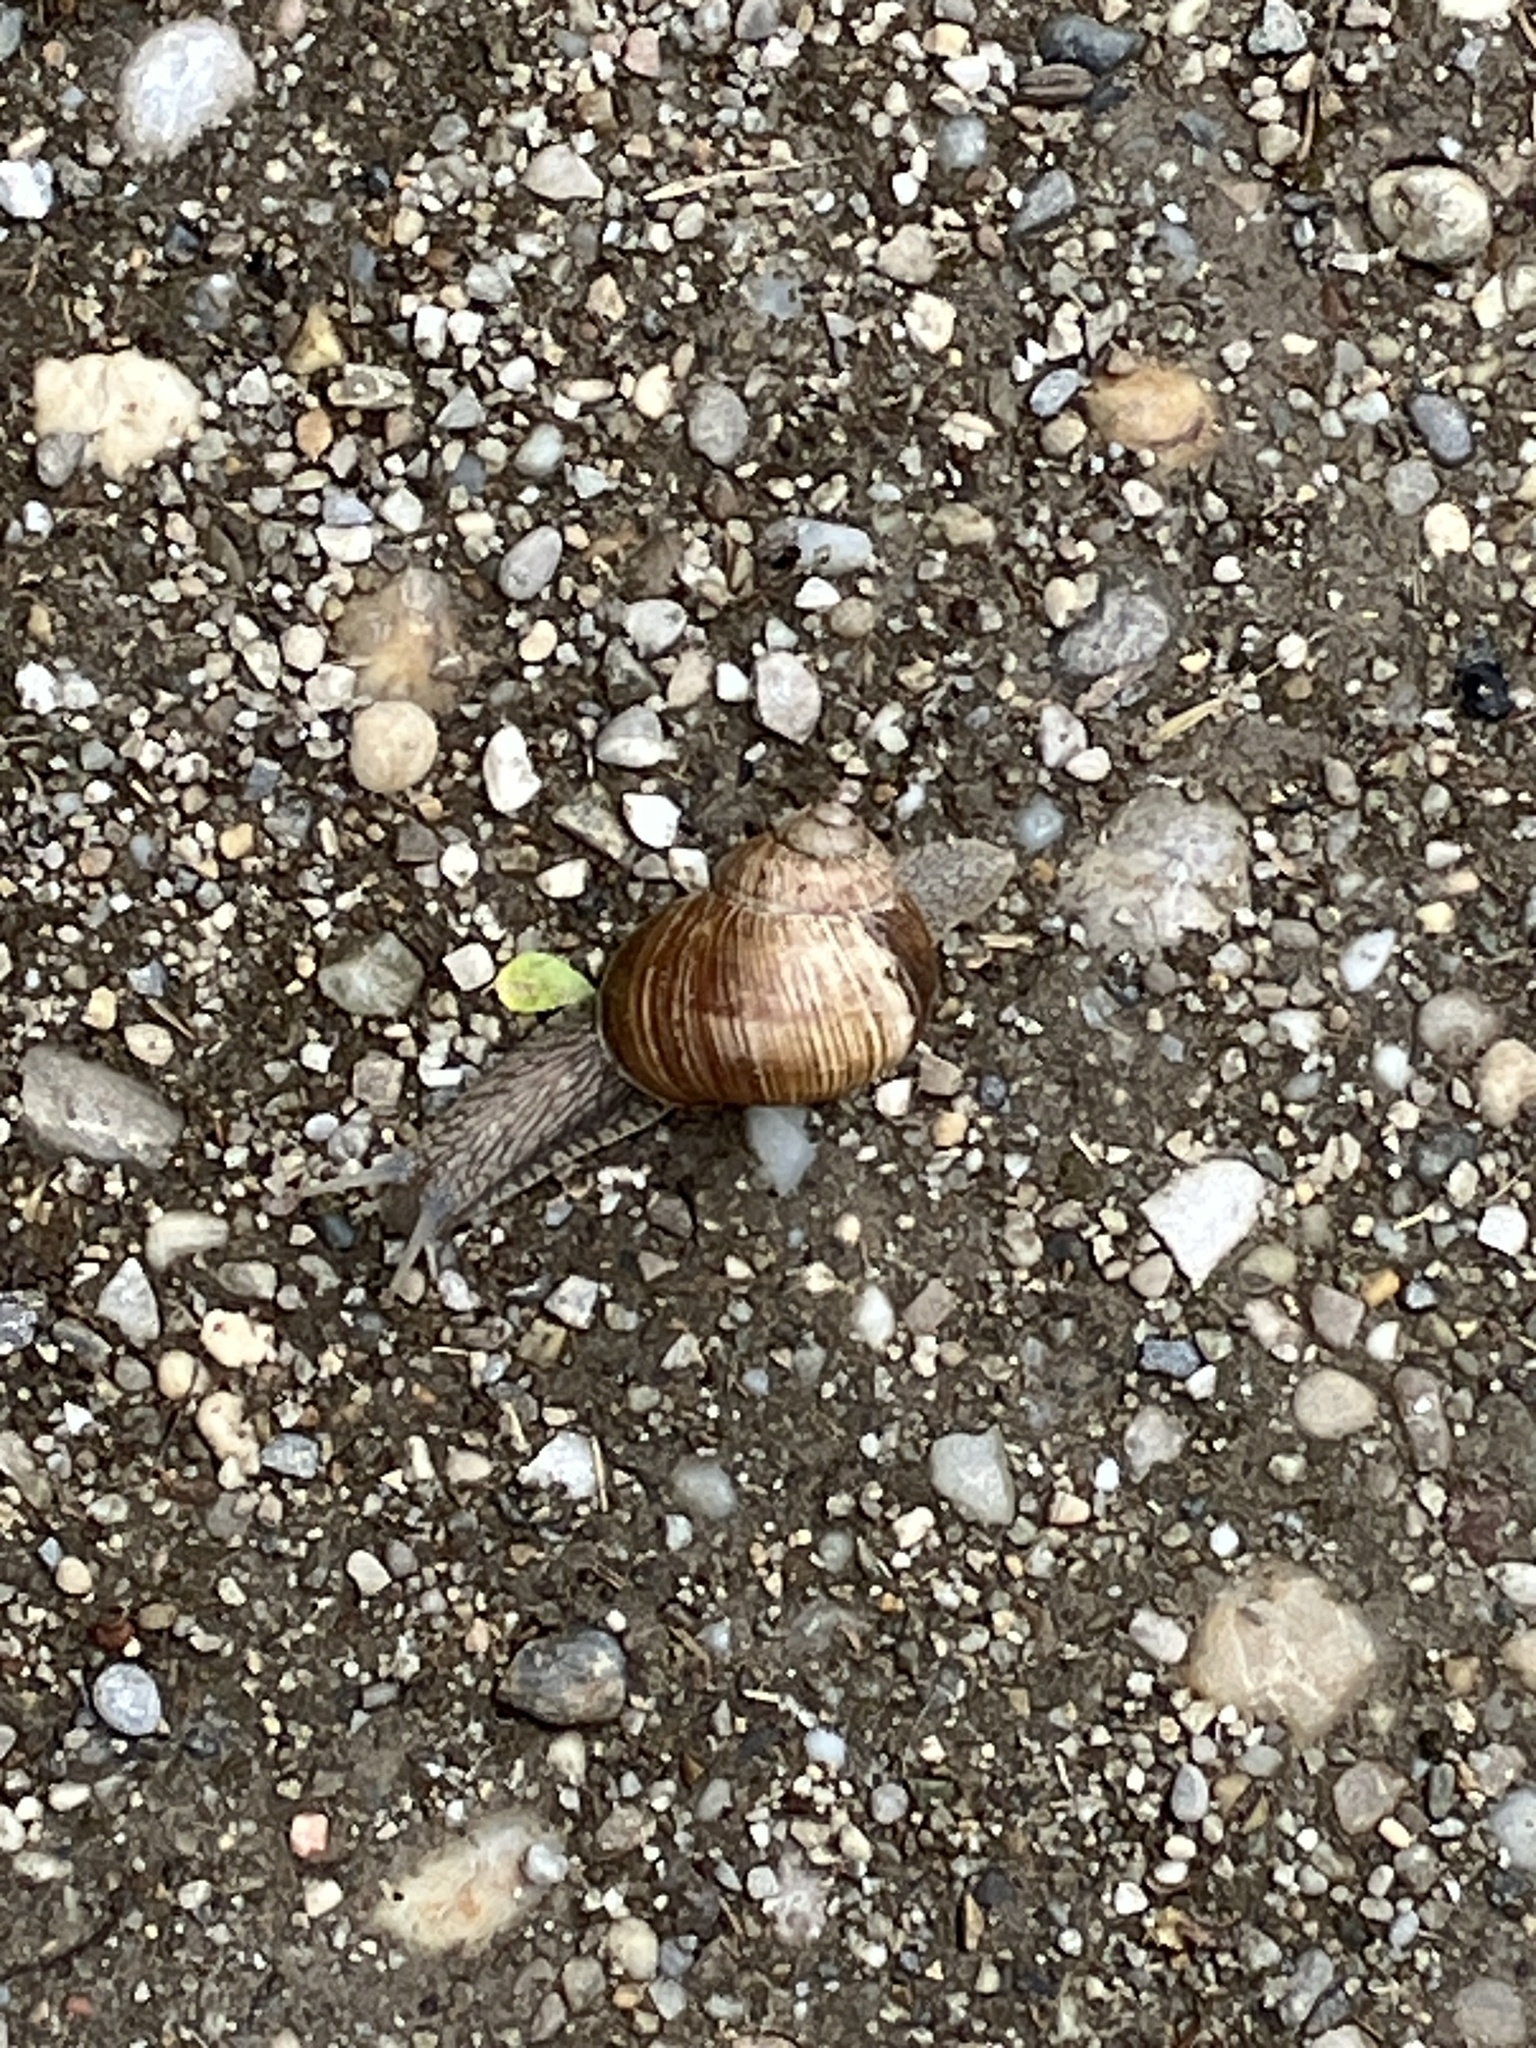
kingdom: Animalia
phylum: Mollusca
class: Gastropoda
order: Stylommatophora
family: Helicidae
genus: Helix
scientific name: Helix pomatia
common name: Roman snail
